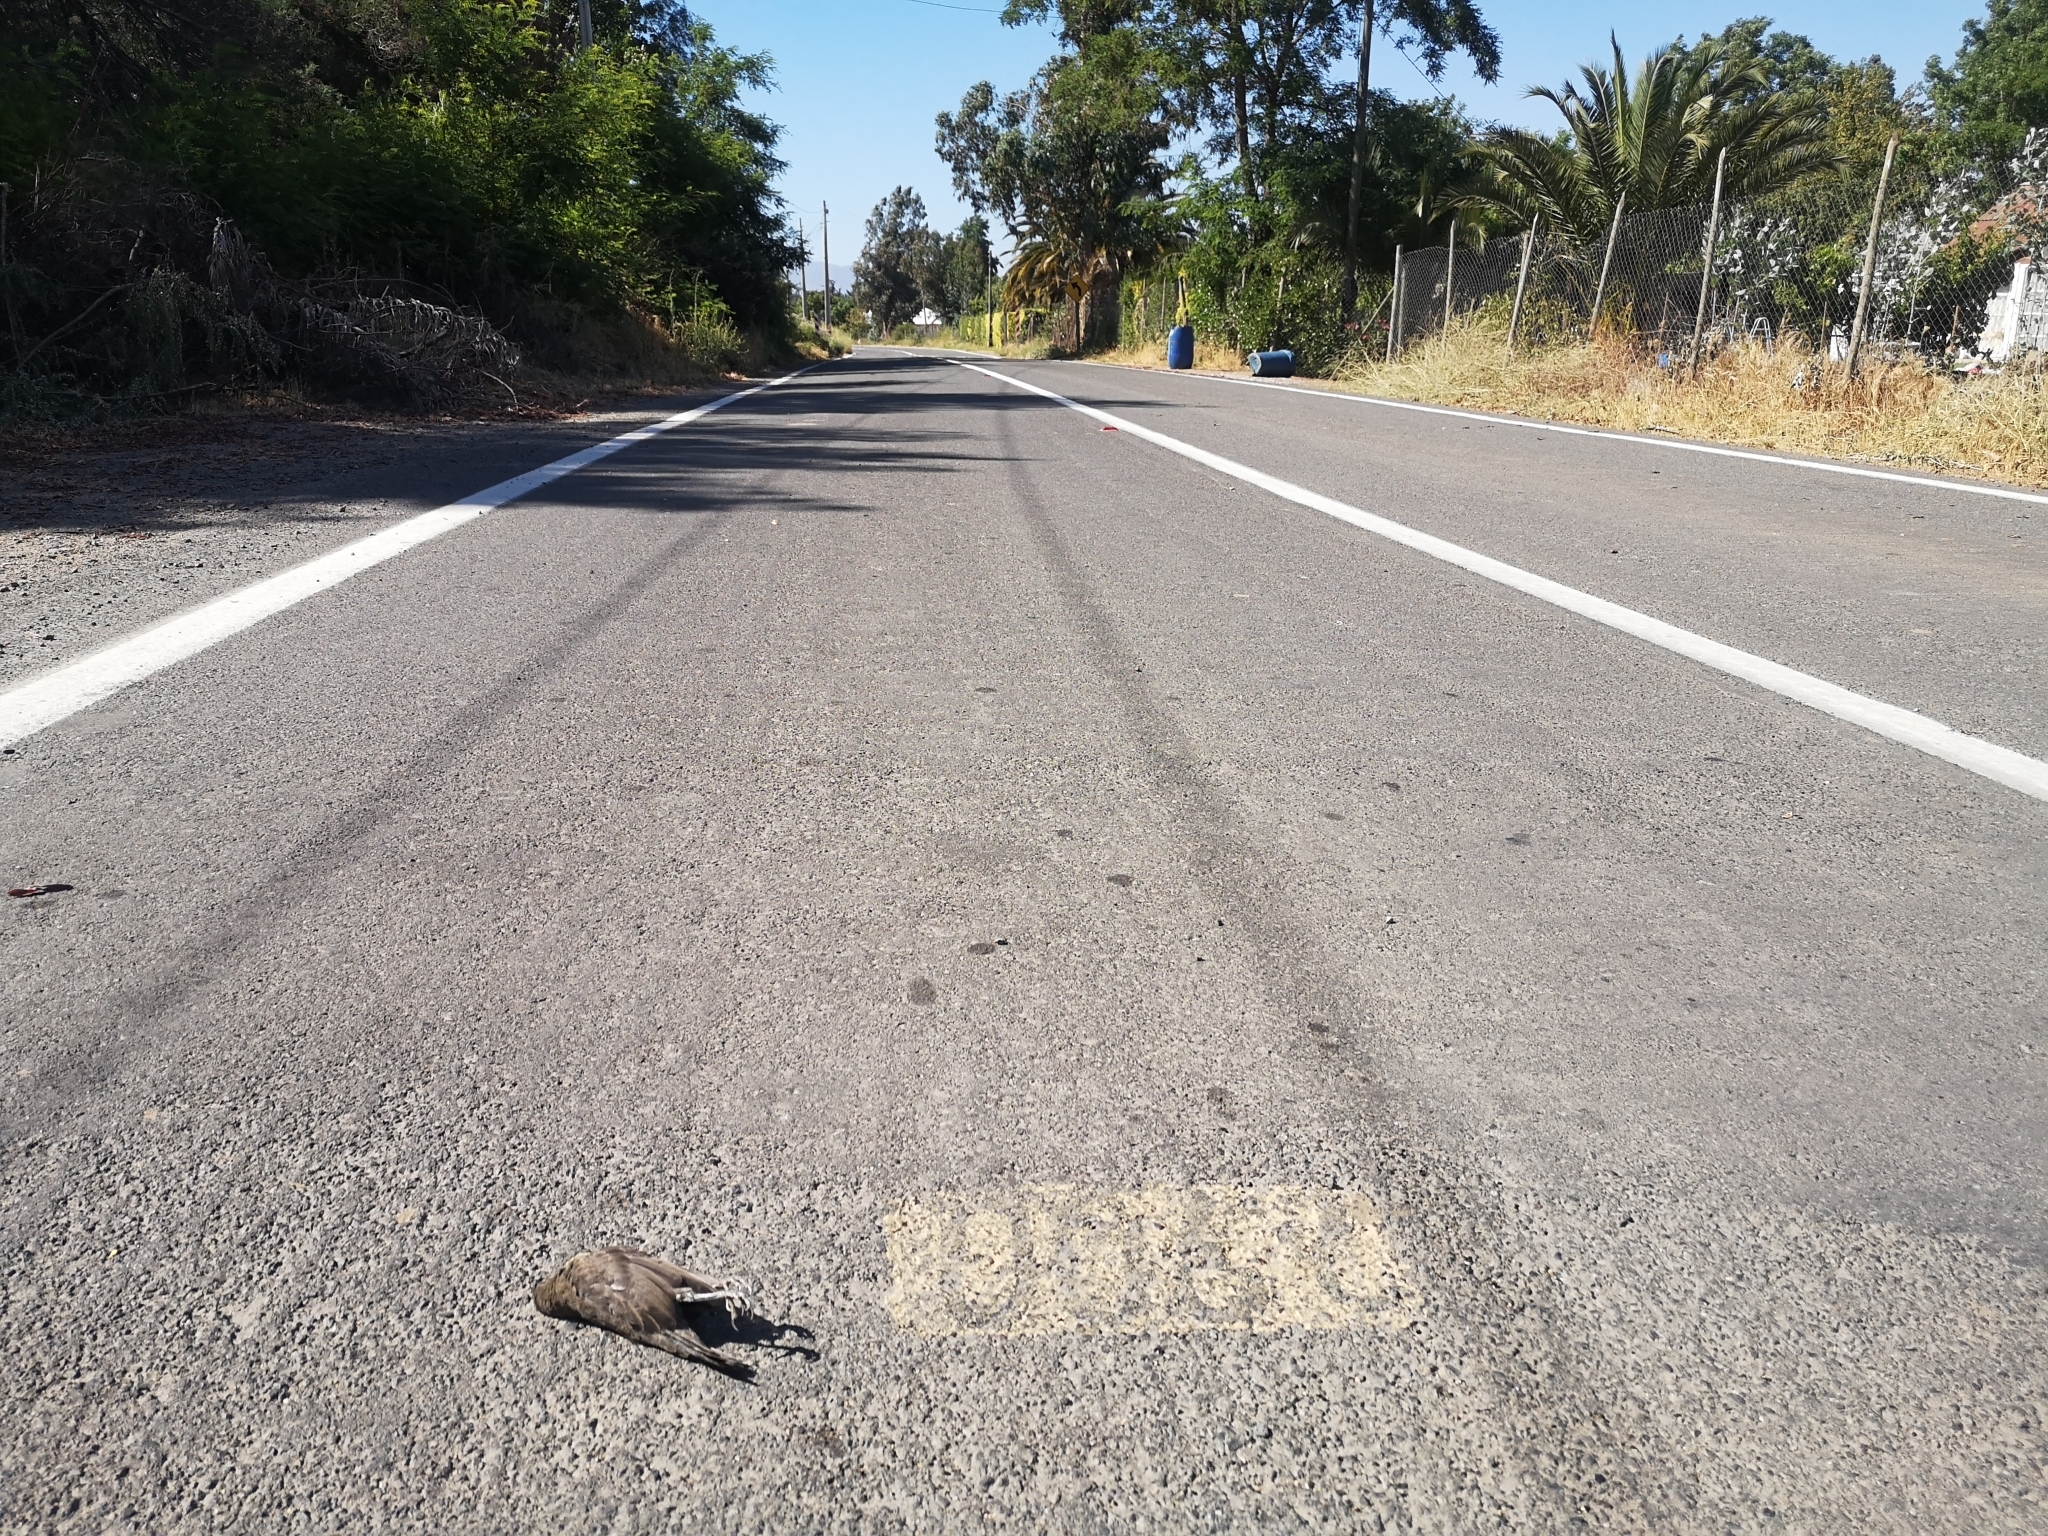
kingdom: Animalia
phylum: Chordata
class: Aves
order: Passeriformes
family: Icteridae
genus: Molothrus
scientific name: Molothrus bonariensis
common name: Shiny cowbird
